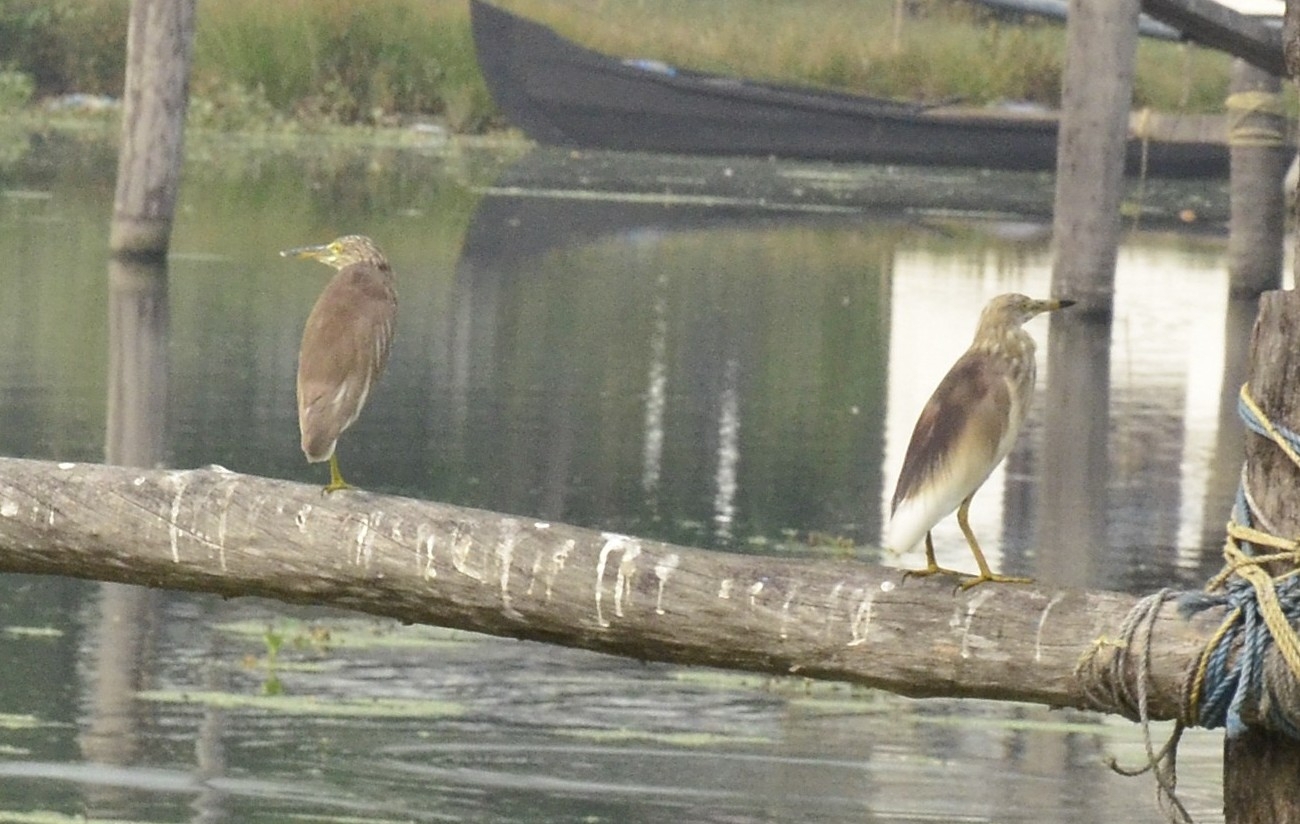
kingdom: Animalia
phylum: Chordata
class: Aves
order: Pelecaniformes
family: Ardeidae
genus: Ardeola
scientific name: Ardeola grayii
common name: Indian pond heron
